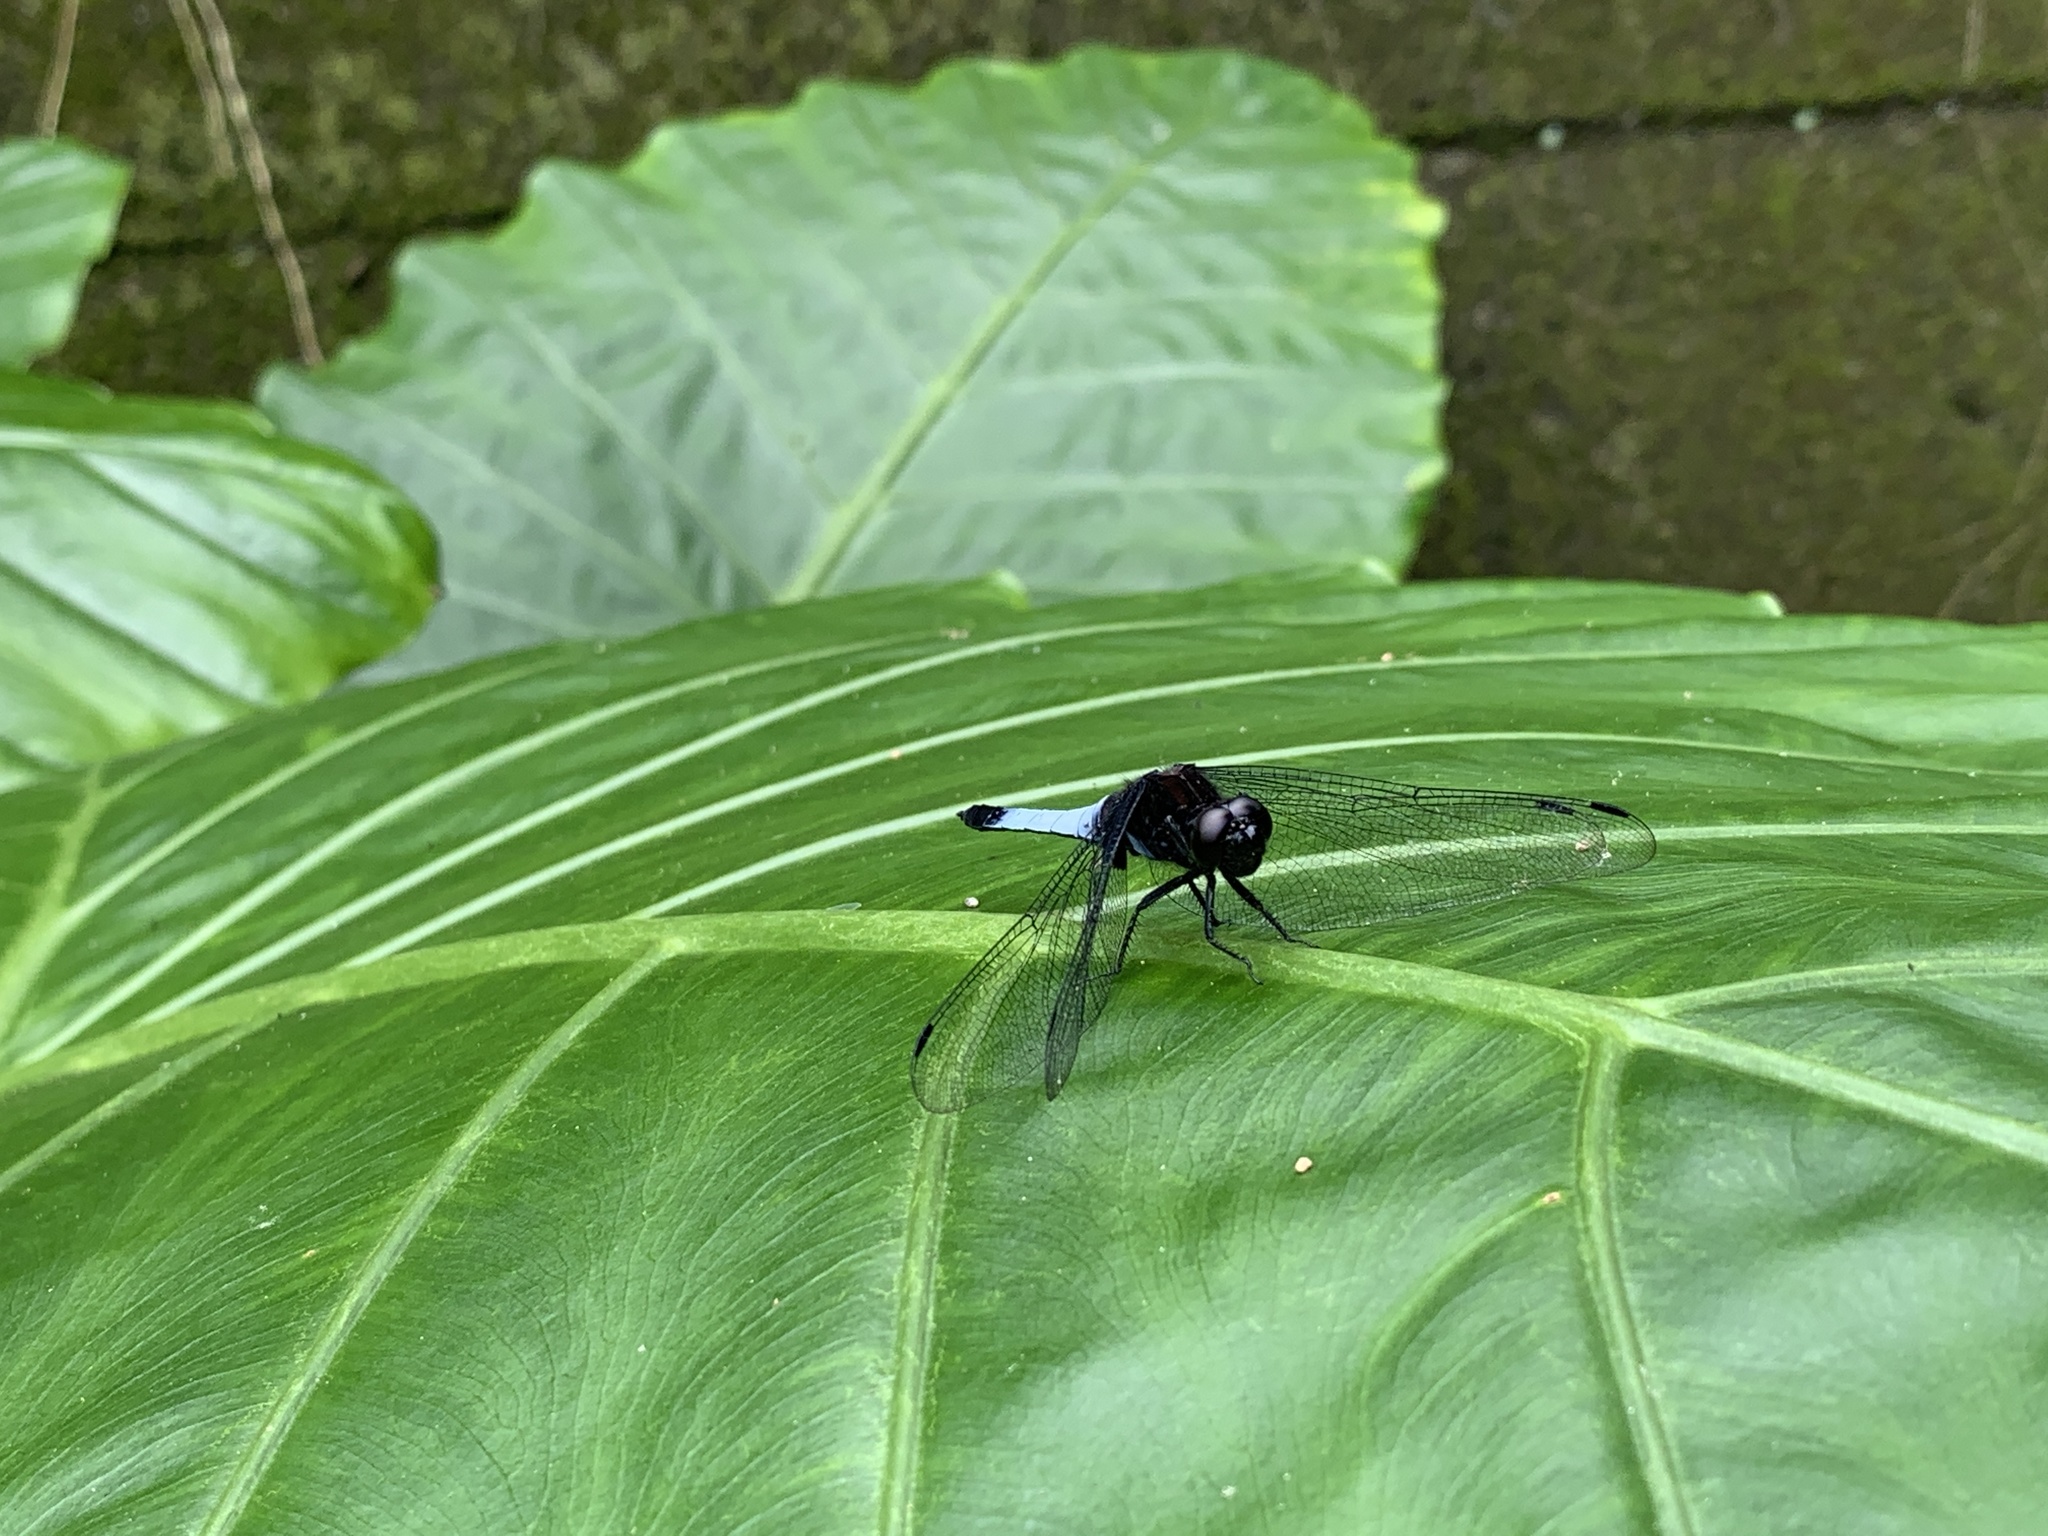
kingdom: Animalia
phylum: Arthropoda
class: Insecta
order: Odonata
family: Libellulidae
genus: Orthetrum
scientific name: Orthetrum triangulare
